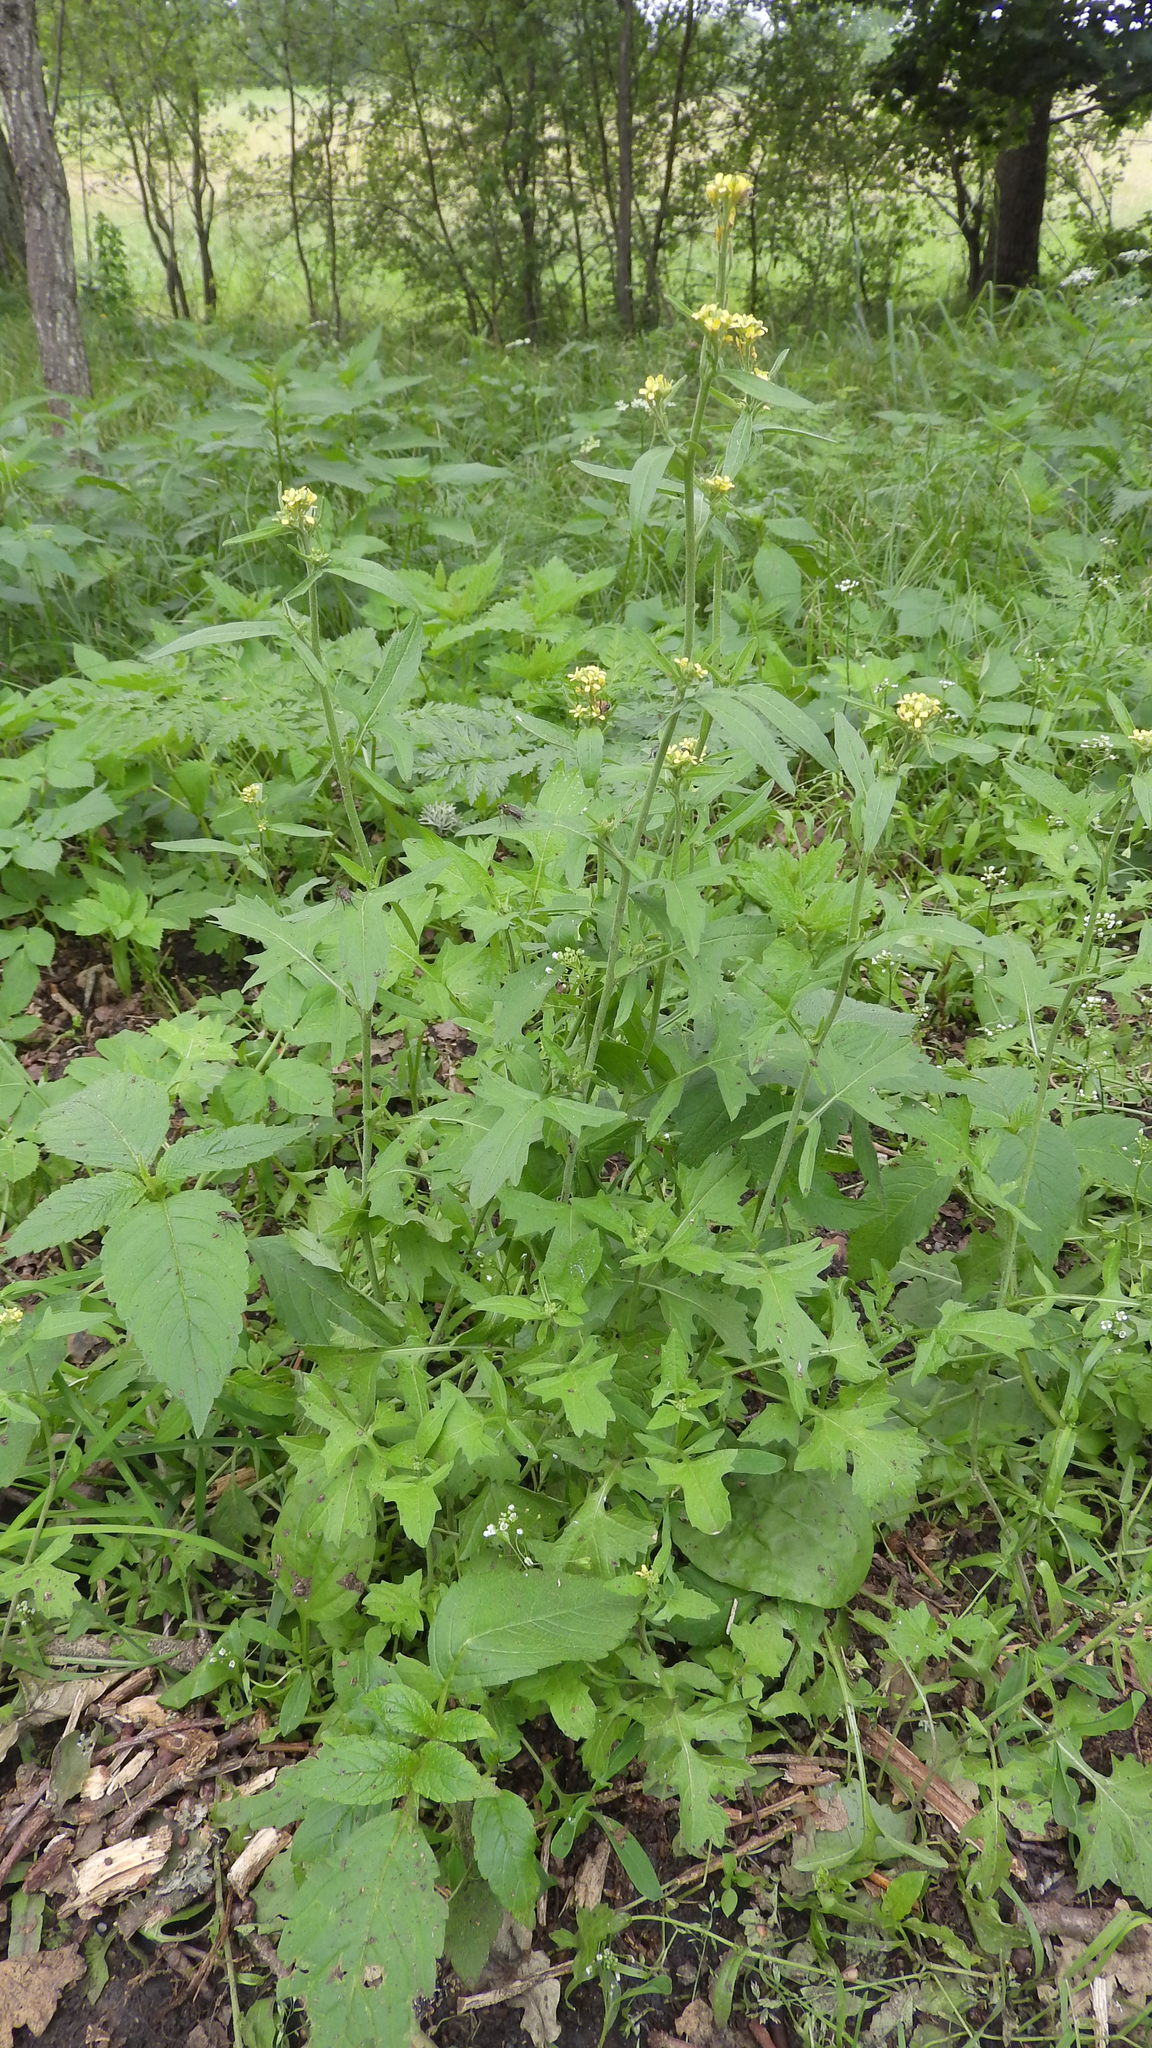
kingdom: Plantae
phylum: Tracheophyta
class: Magnoliopsida
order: Brassicales
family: Brassicaceae
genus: Sisymbrium
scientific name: Sisymbrium officinale
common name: Hedge mustard
